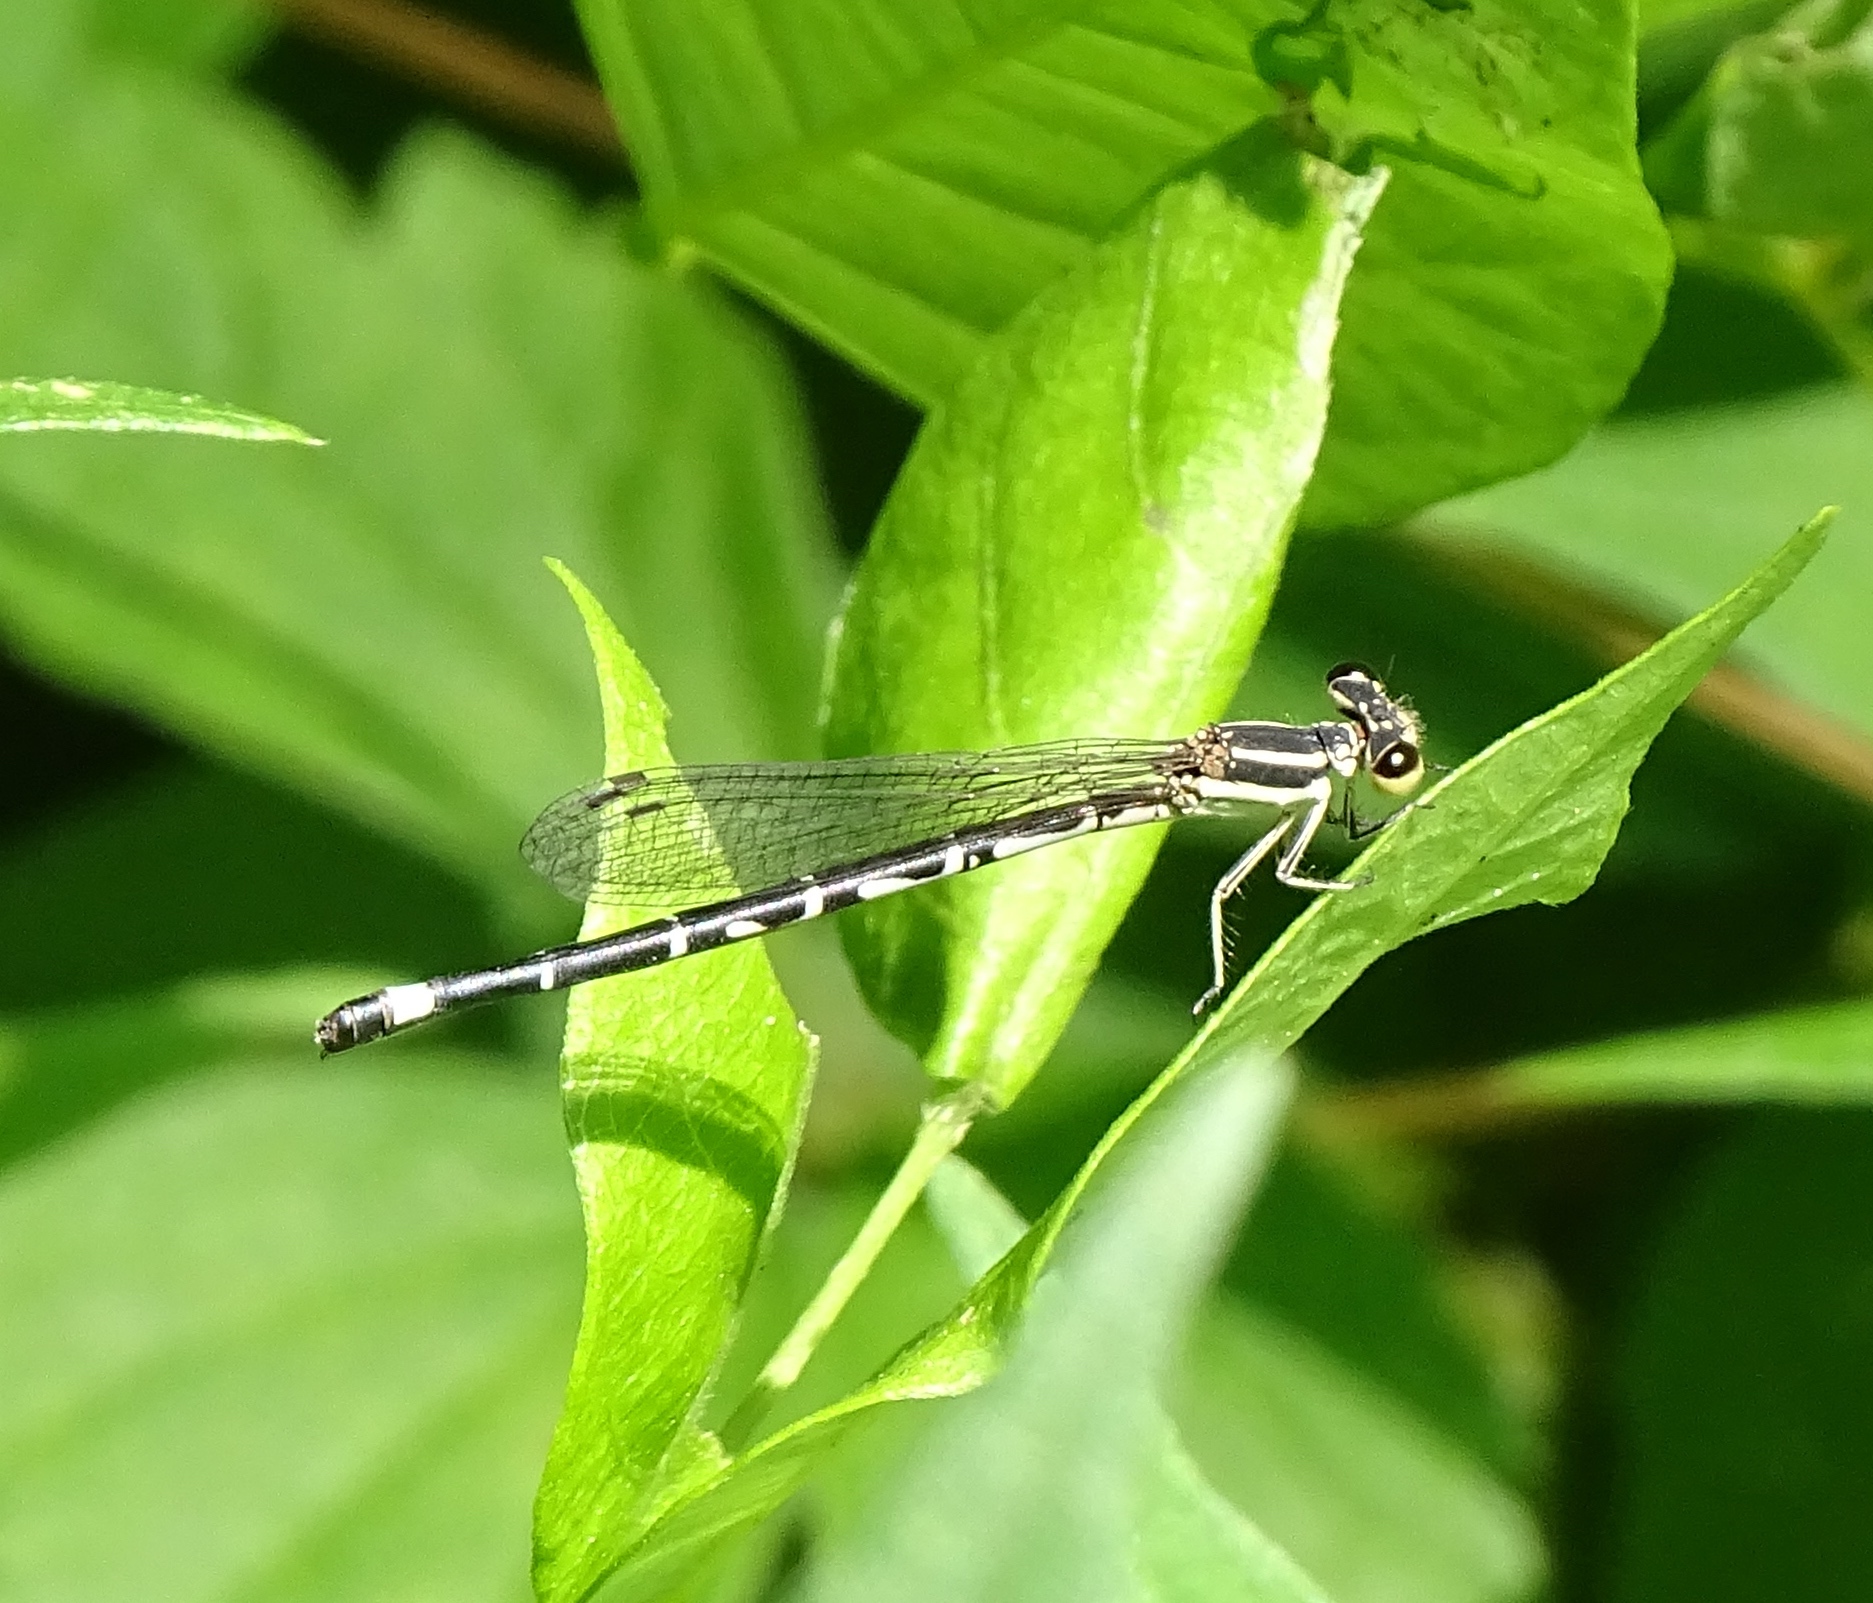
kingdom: Animalia
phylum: Arthropoda
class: Insecta
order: Odonata
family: Coenagrionidae
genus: Argia
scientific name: Argia bipunctulata
